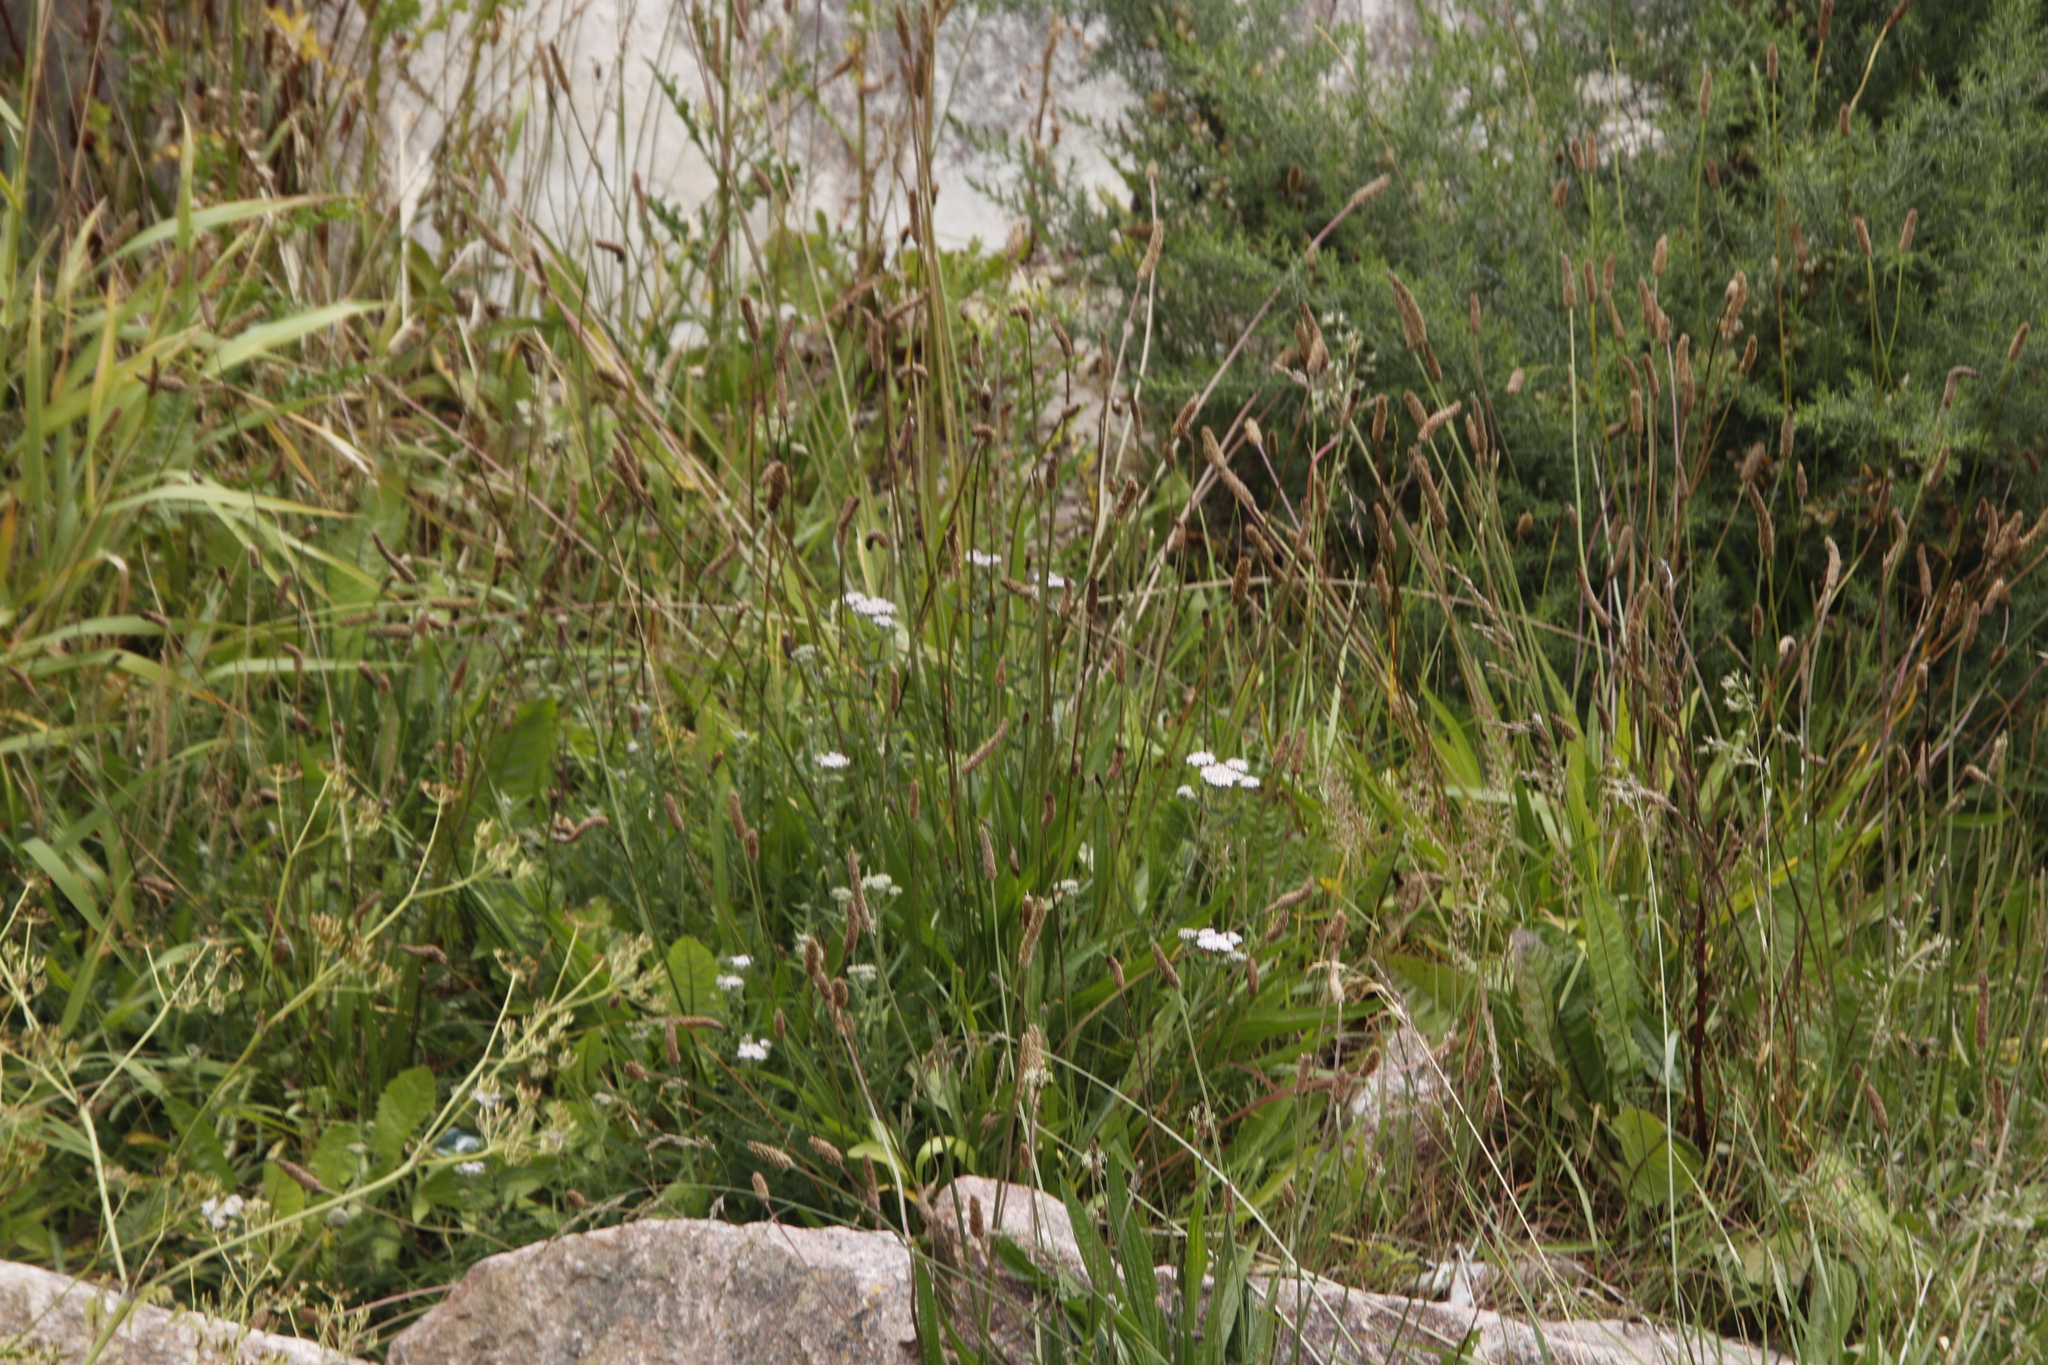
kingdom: Plantae
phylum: Tracheophyta
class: Magnoliopsida
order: Lamiales
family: Plantaginaceae
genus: Plantago
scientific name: Plantago lanceolata
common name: Ribwort plantain
